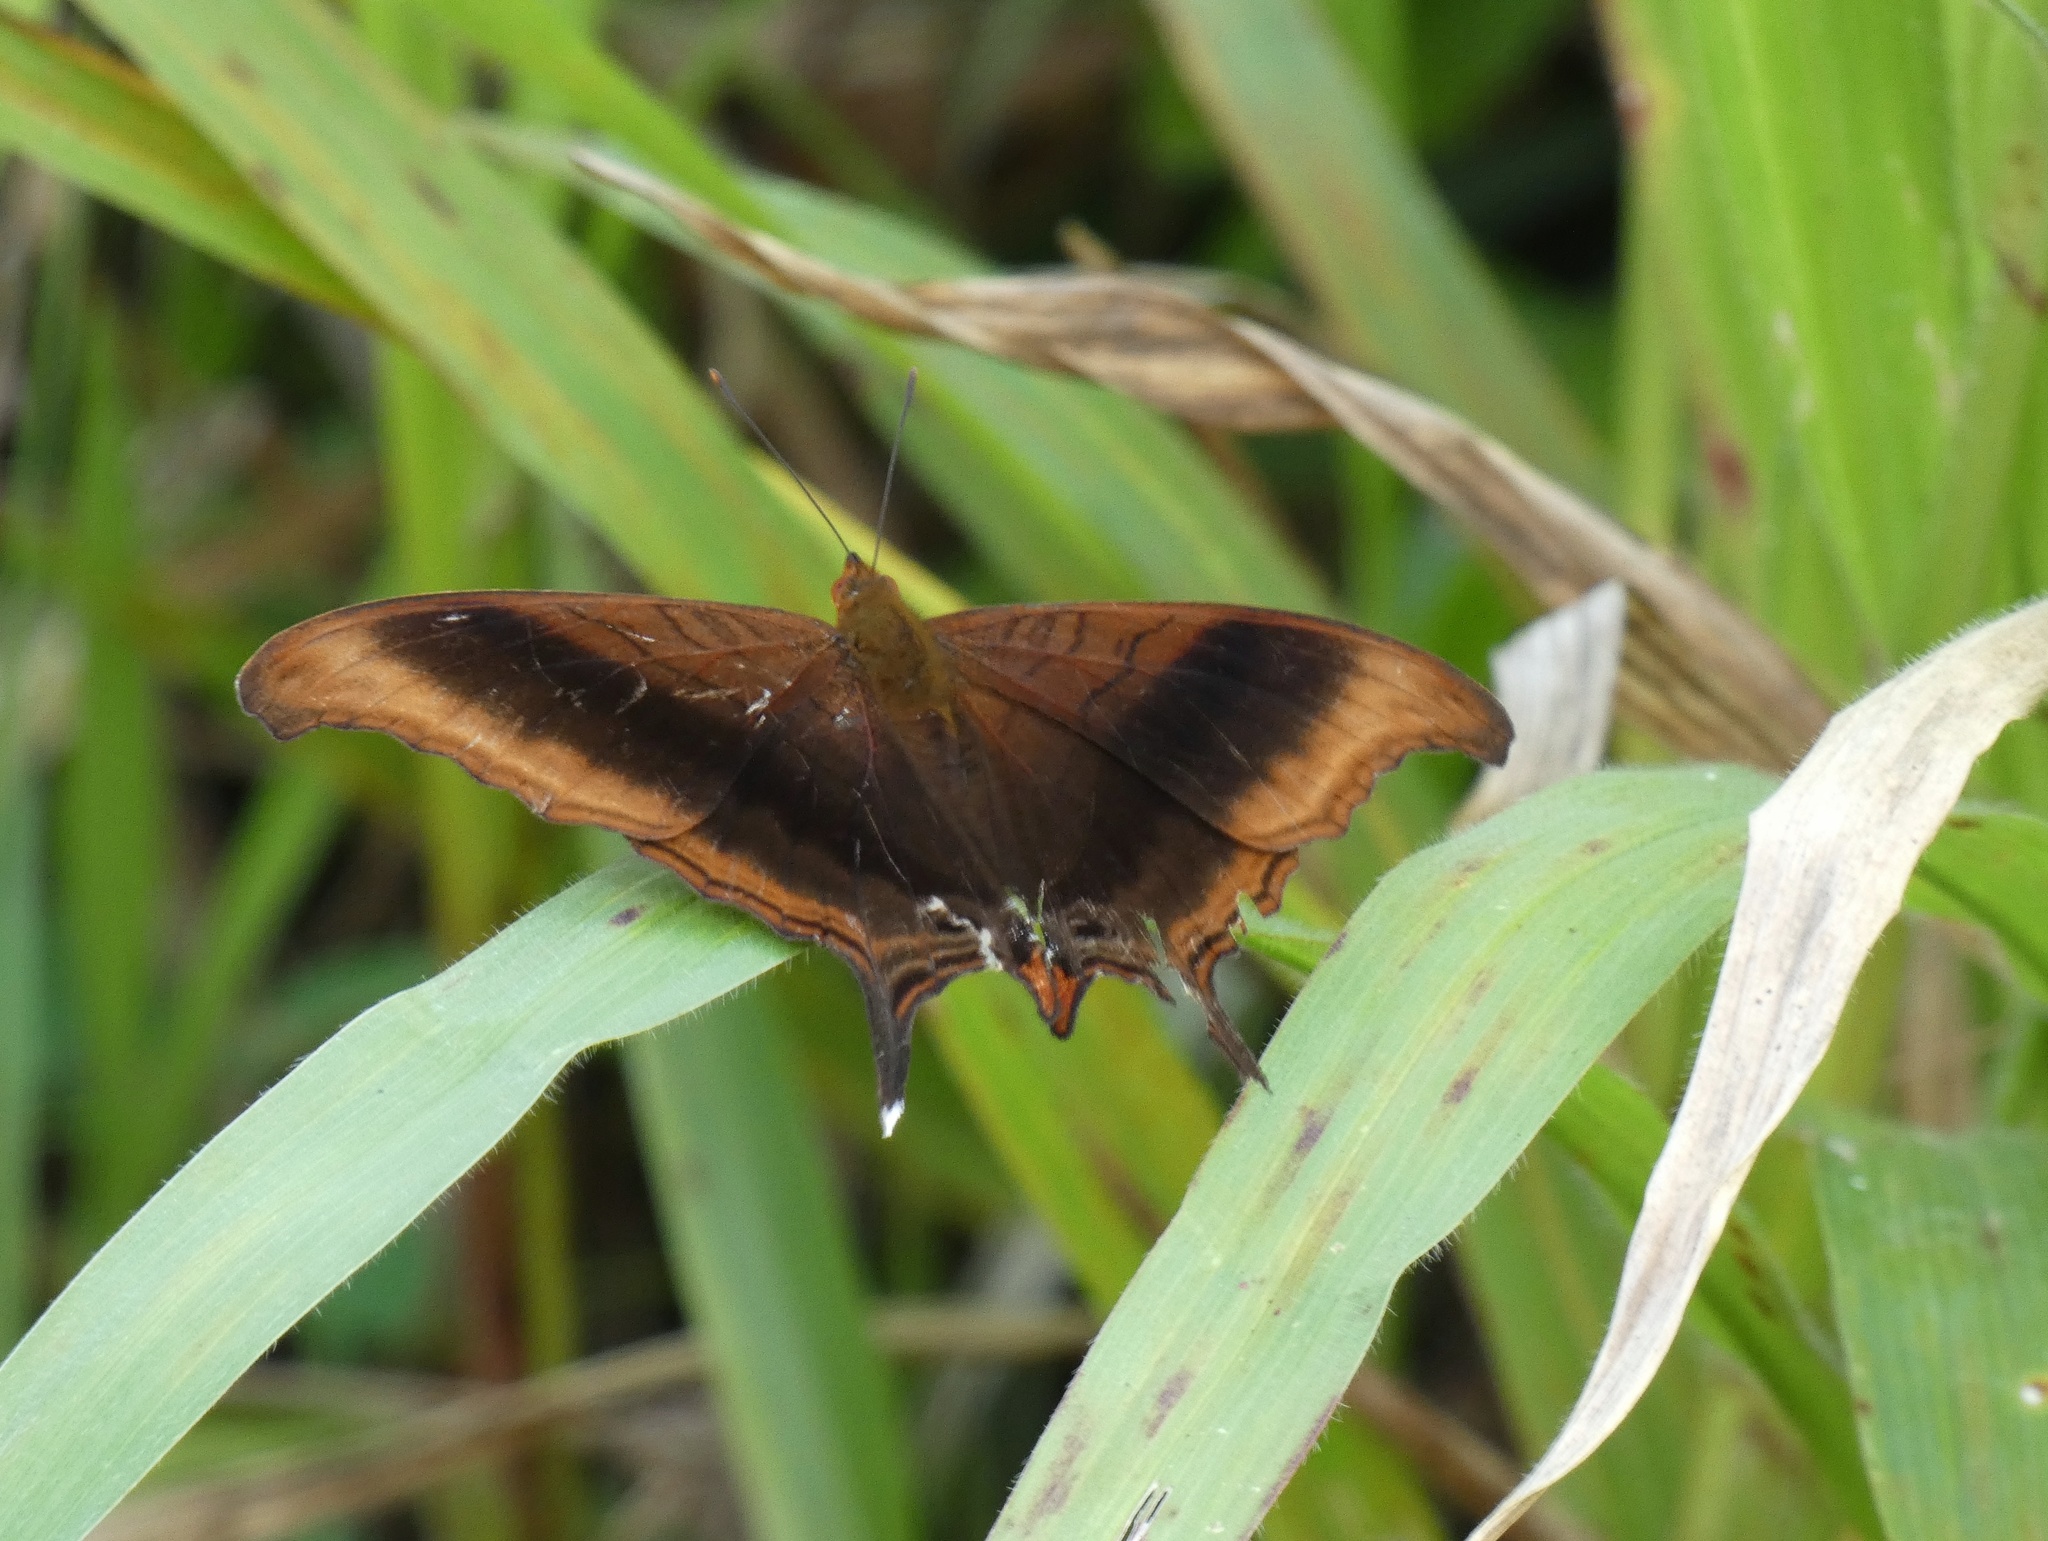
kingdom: Animalia
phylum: Arthropoda
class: Insecta
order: Lepidoptera
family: Nymphalidae
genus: Marpesia
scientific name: Marpesia zerynthia
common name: Waiter daggerwing
